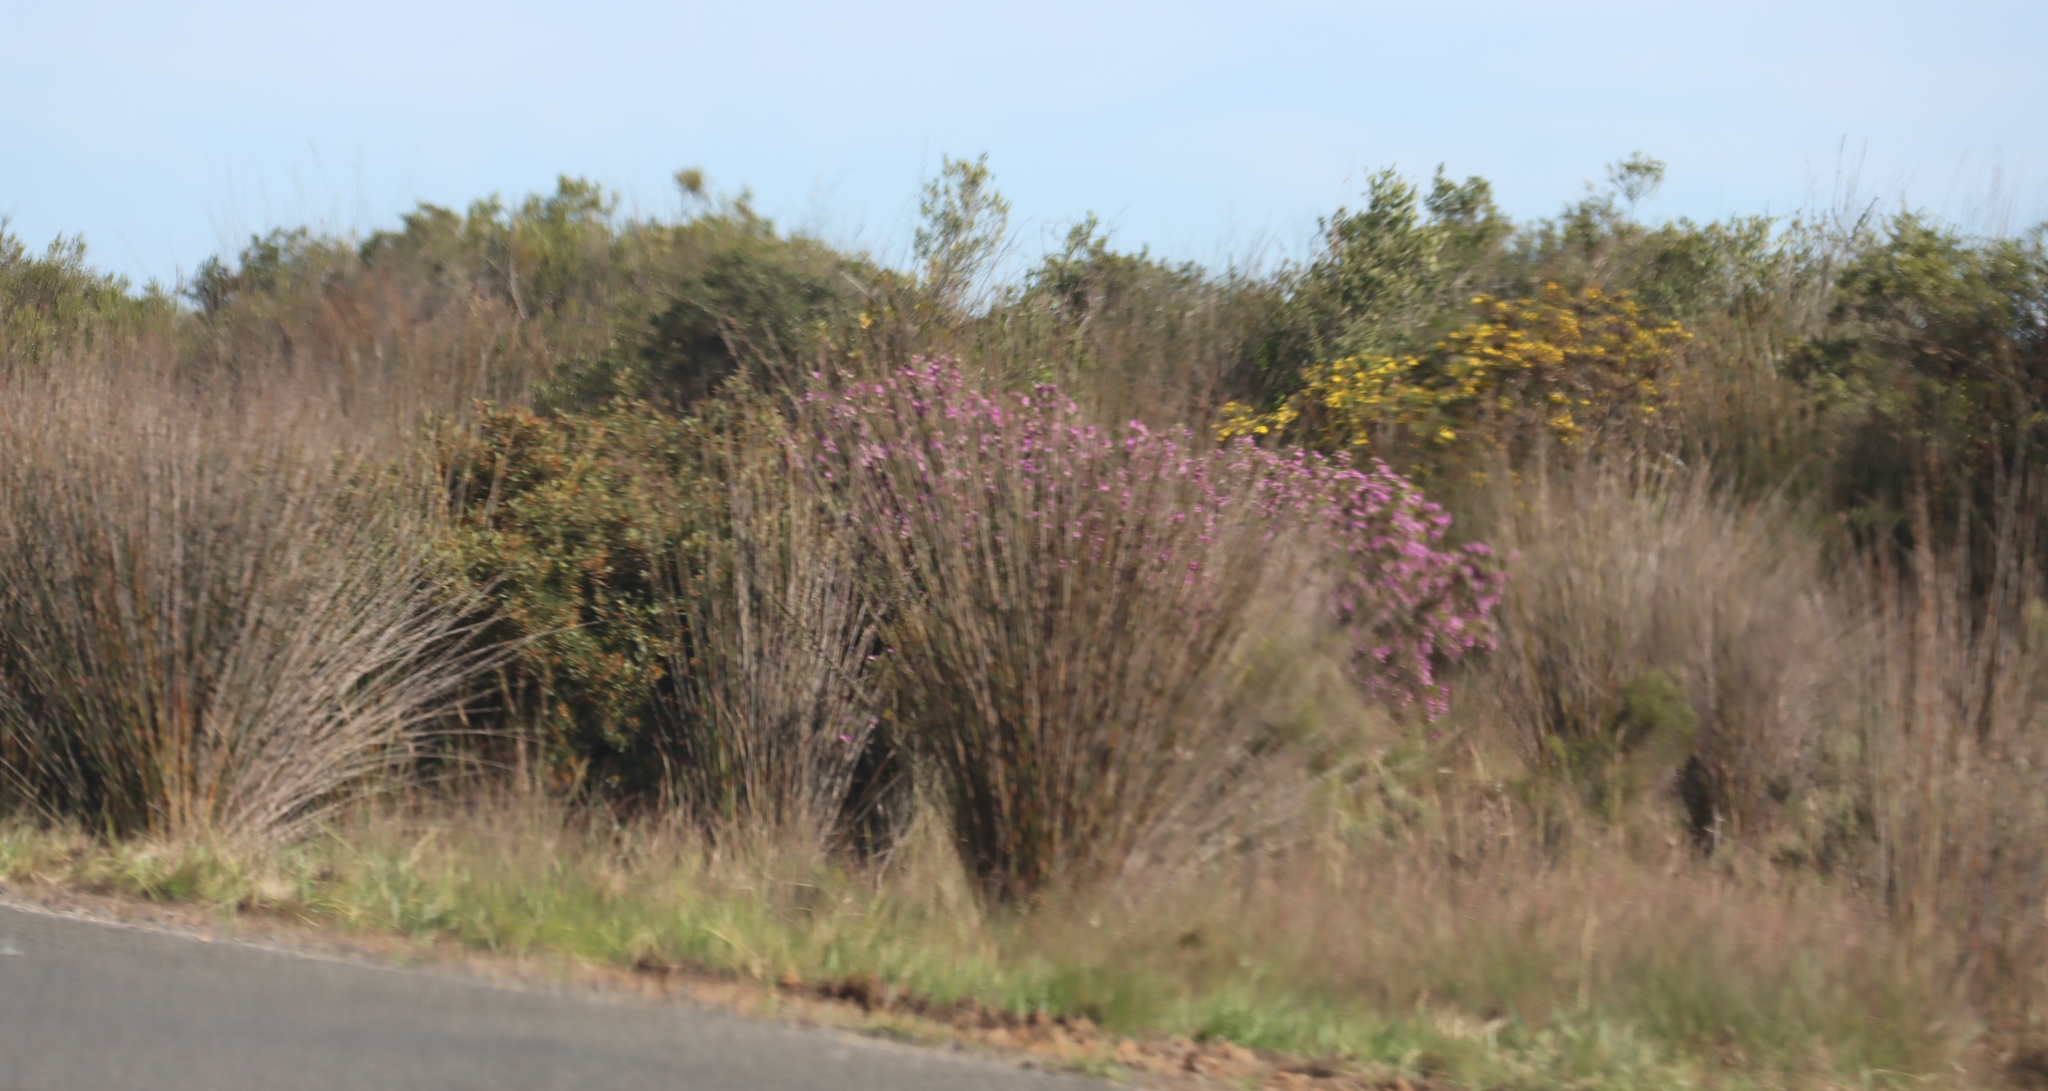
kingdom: Plantae
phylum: Tracheophyta
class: Magnoliopsida
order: Fabales
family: Polygalaceae
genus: Polygala
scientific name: Polygala myrtifolia
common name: Myrtle-leaf milkwort
